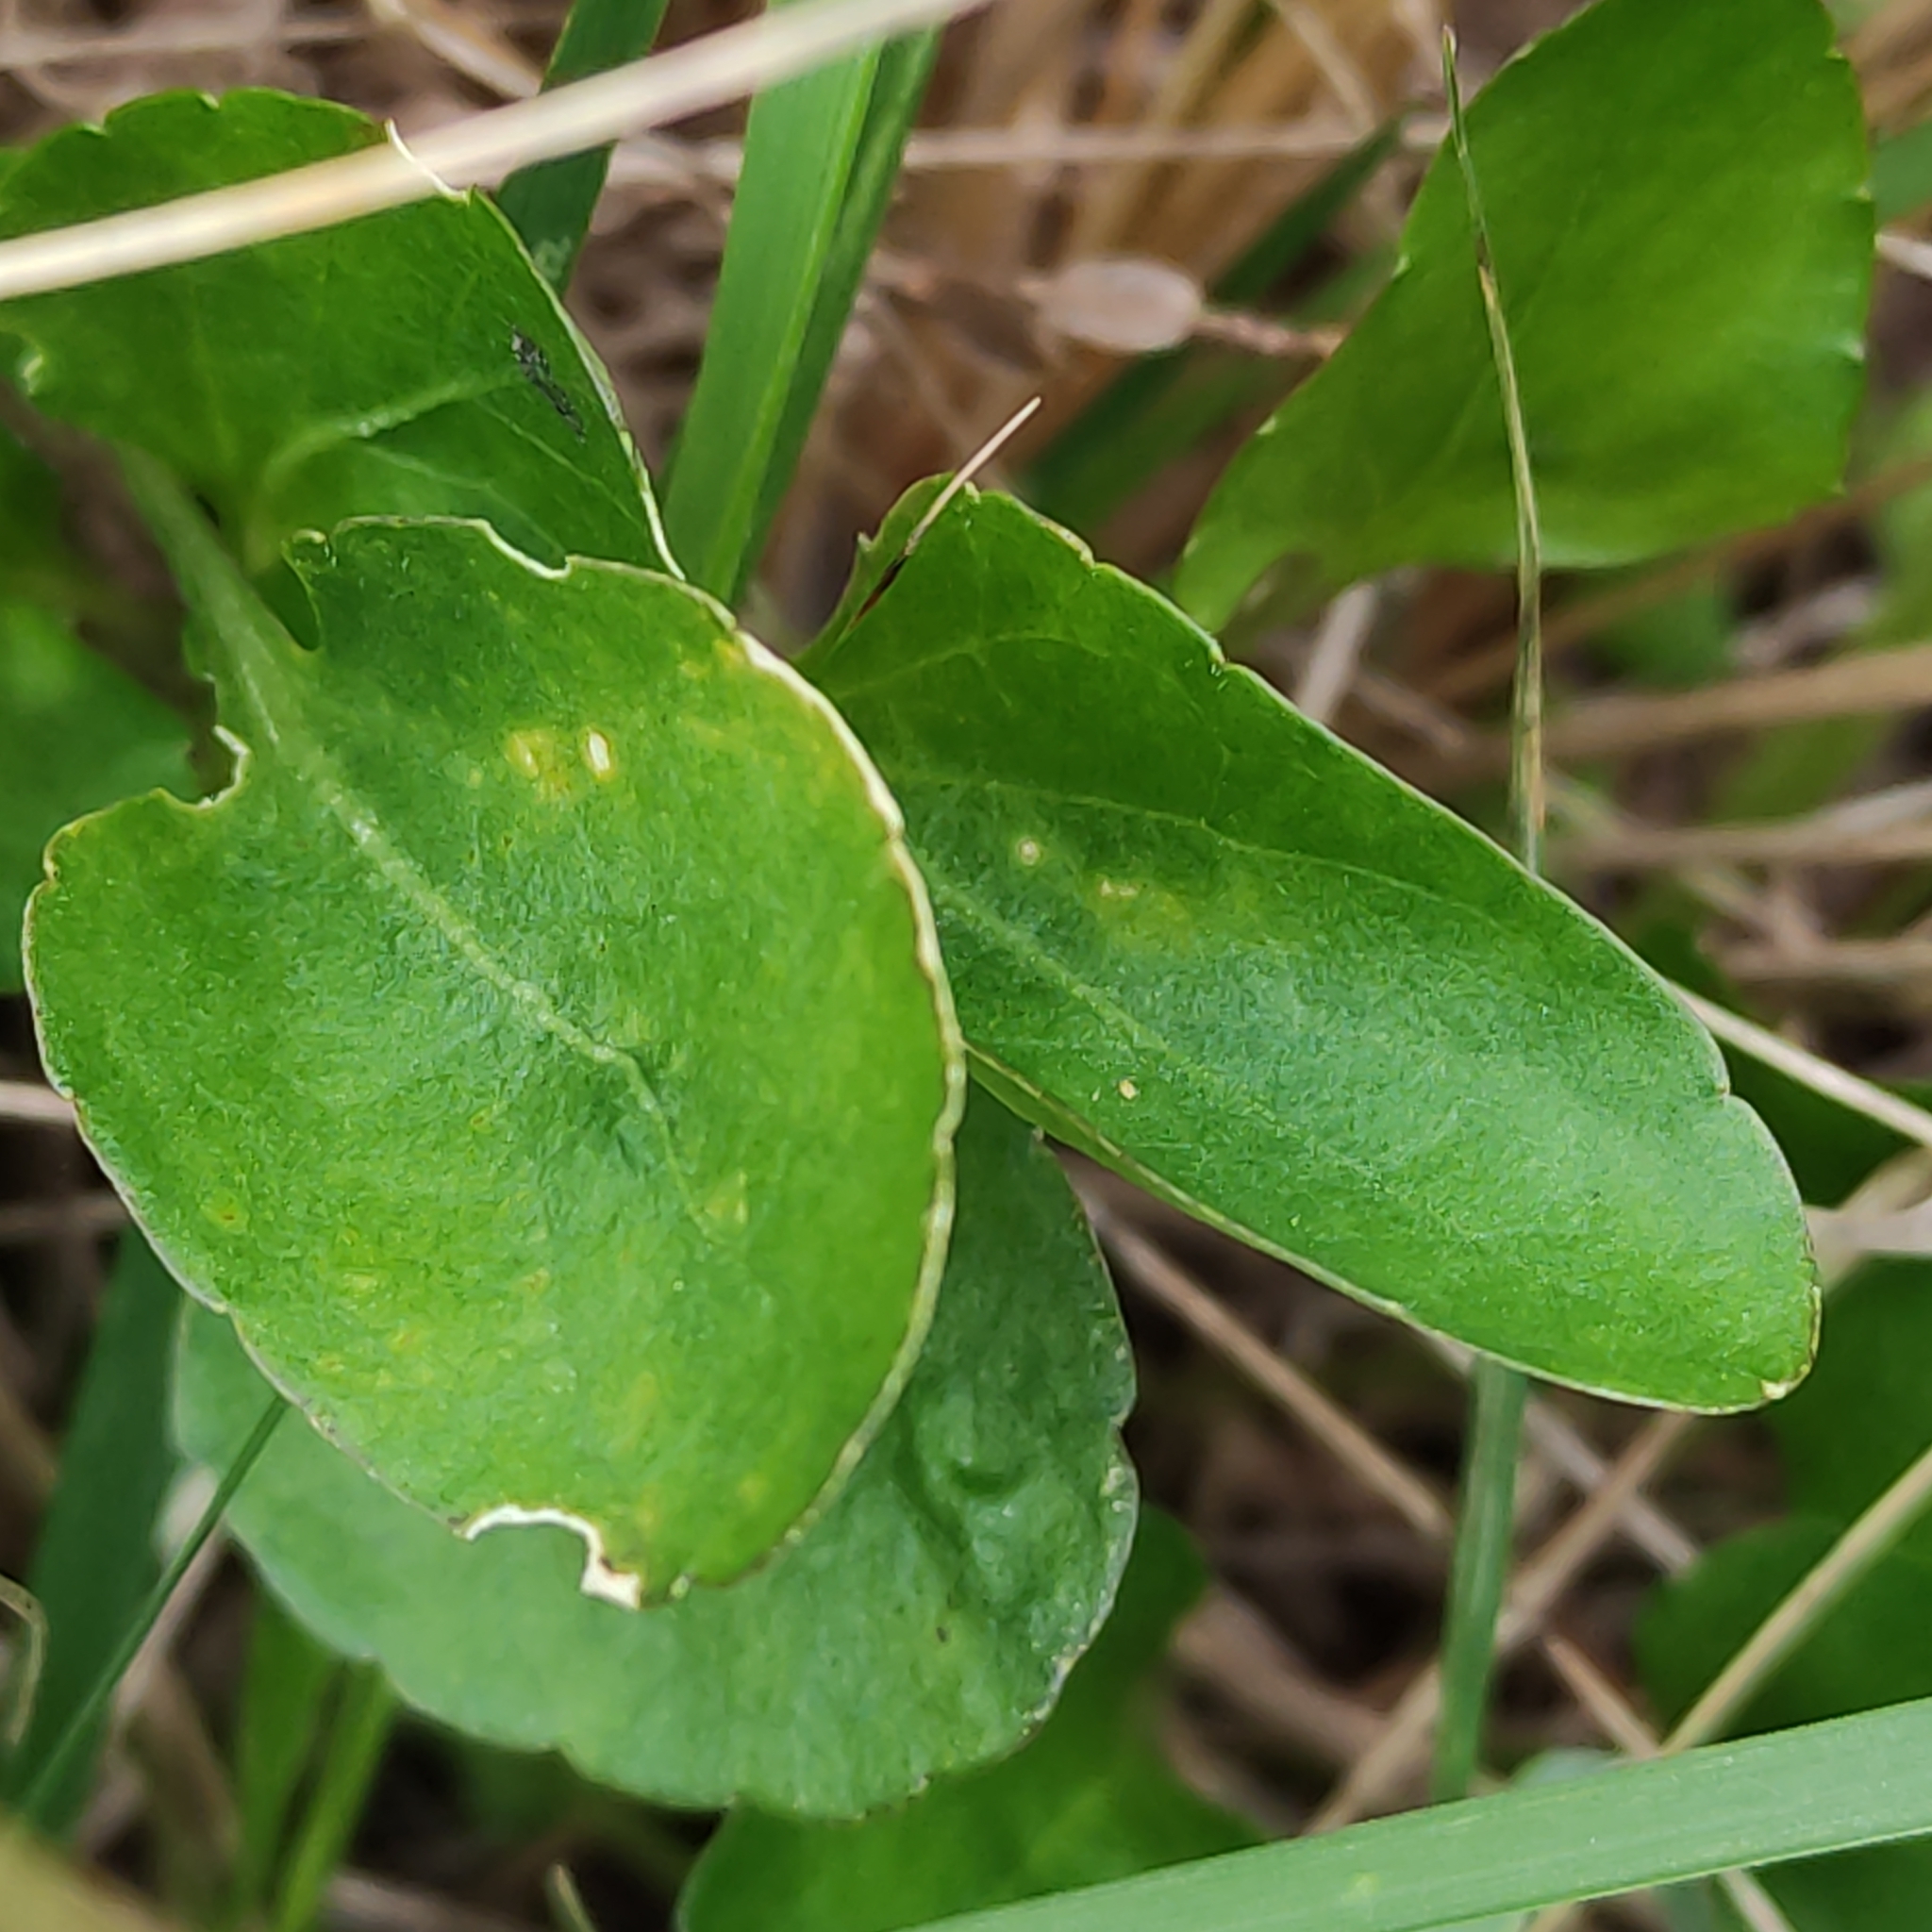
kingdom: Plantae
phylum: Tracheophyta
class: Magnoliopsida
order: Malpighiales
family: Violaceae
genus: Viola
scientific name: Viola cunninghamii
